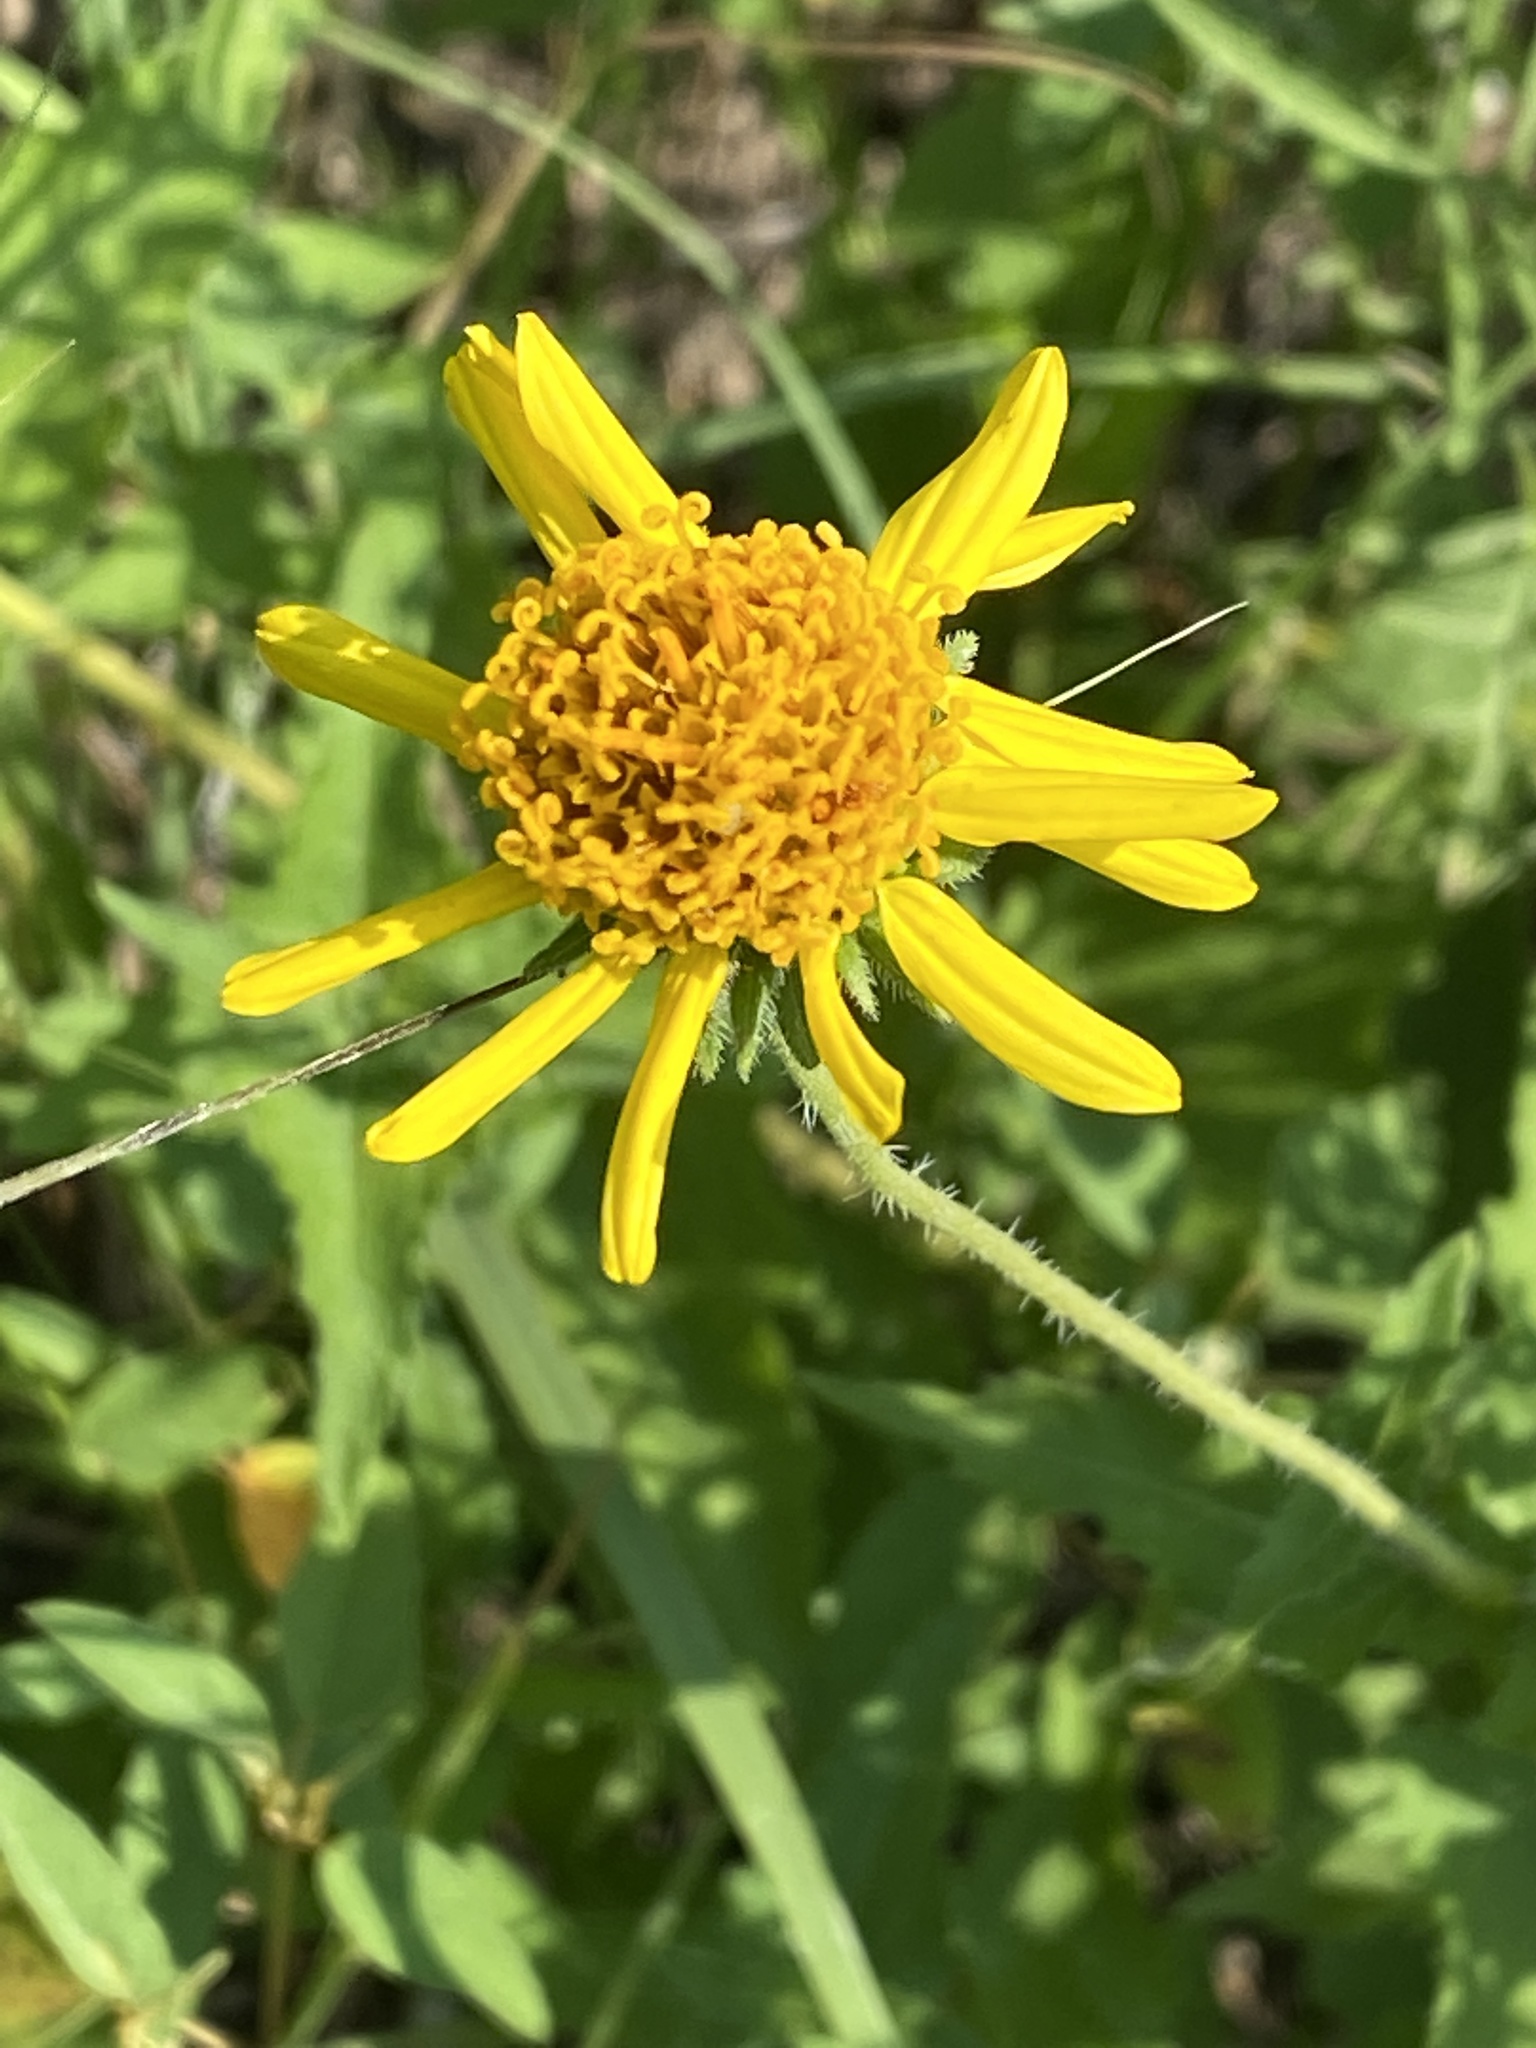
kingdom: Plantae
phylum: Tracheophyta
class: Magnoliopsida
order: Asterales
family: Asteraceae
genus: Simsia
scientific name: Simsia calva
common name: Awnless bush-sunflower
